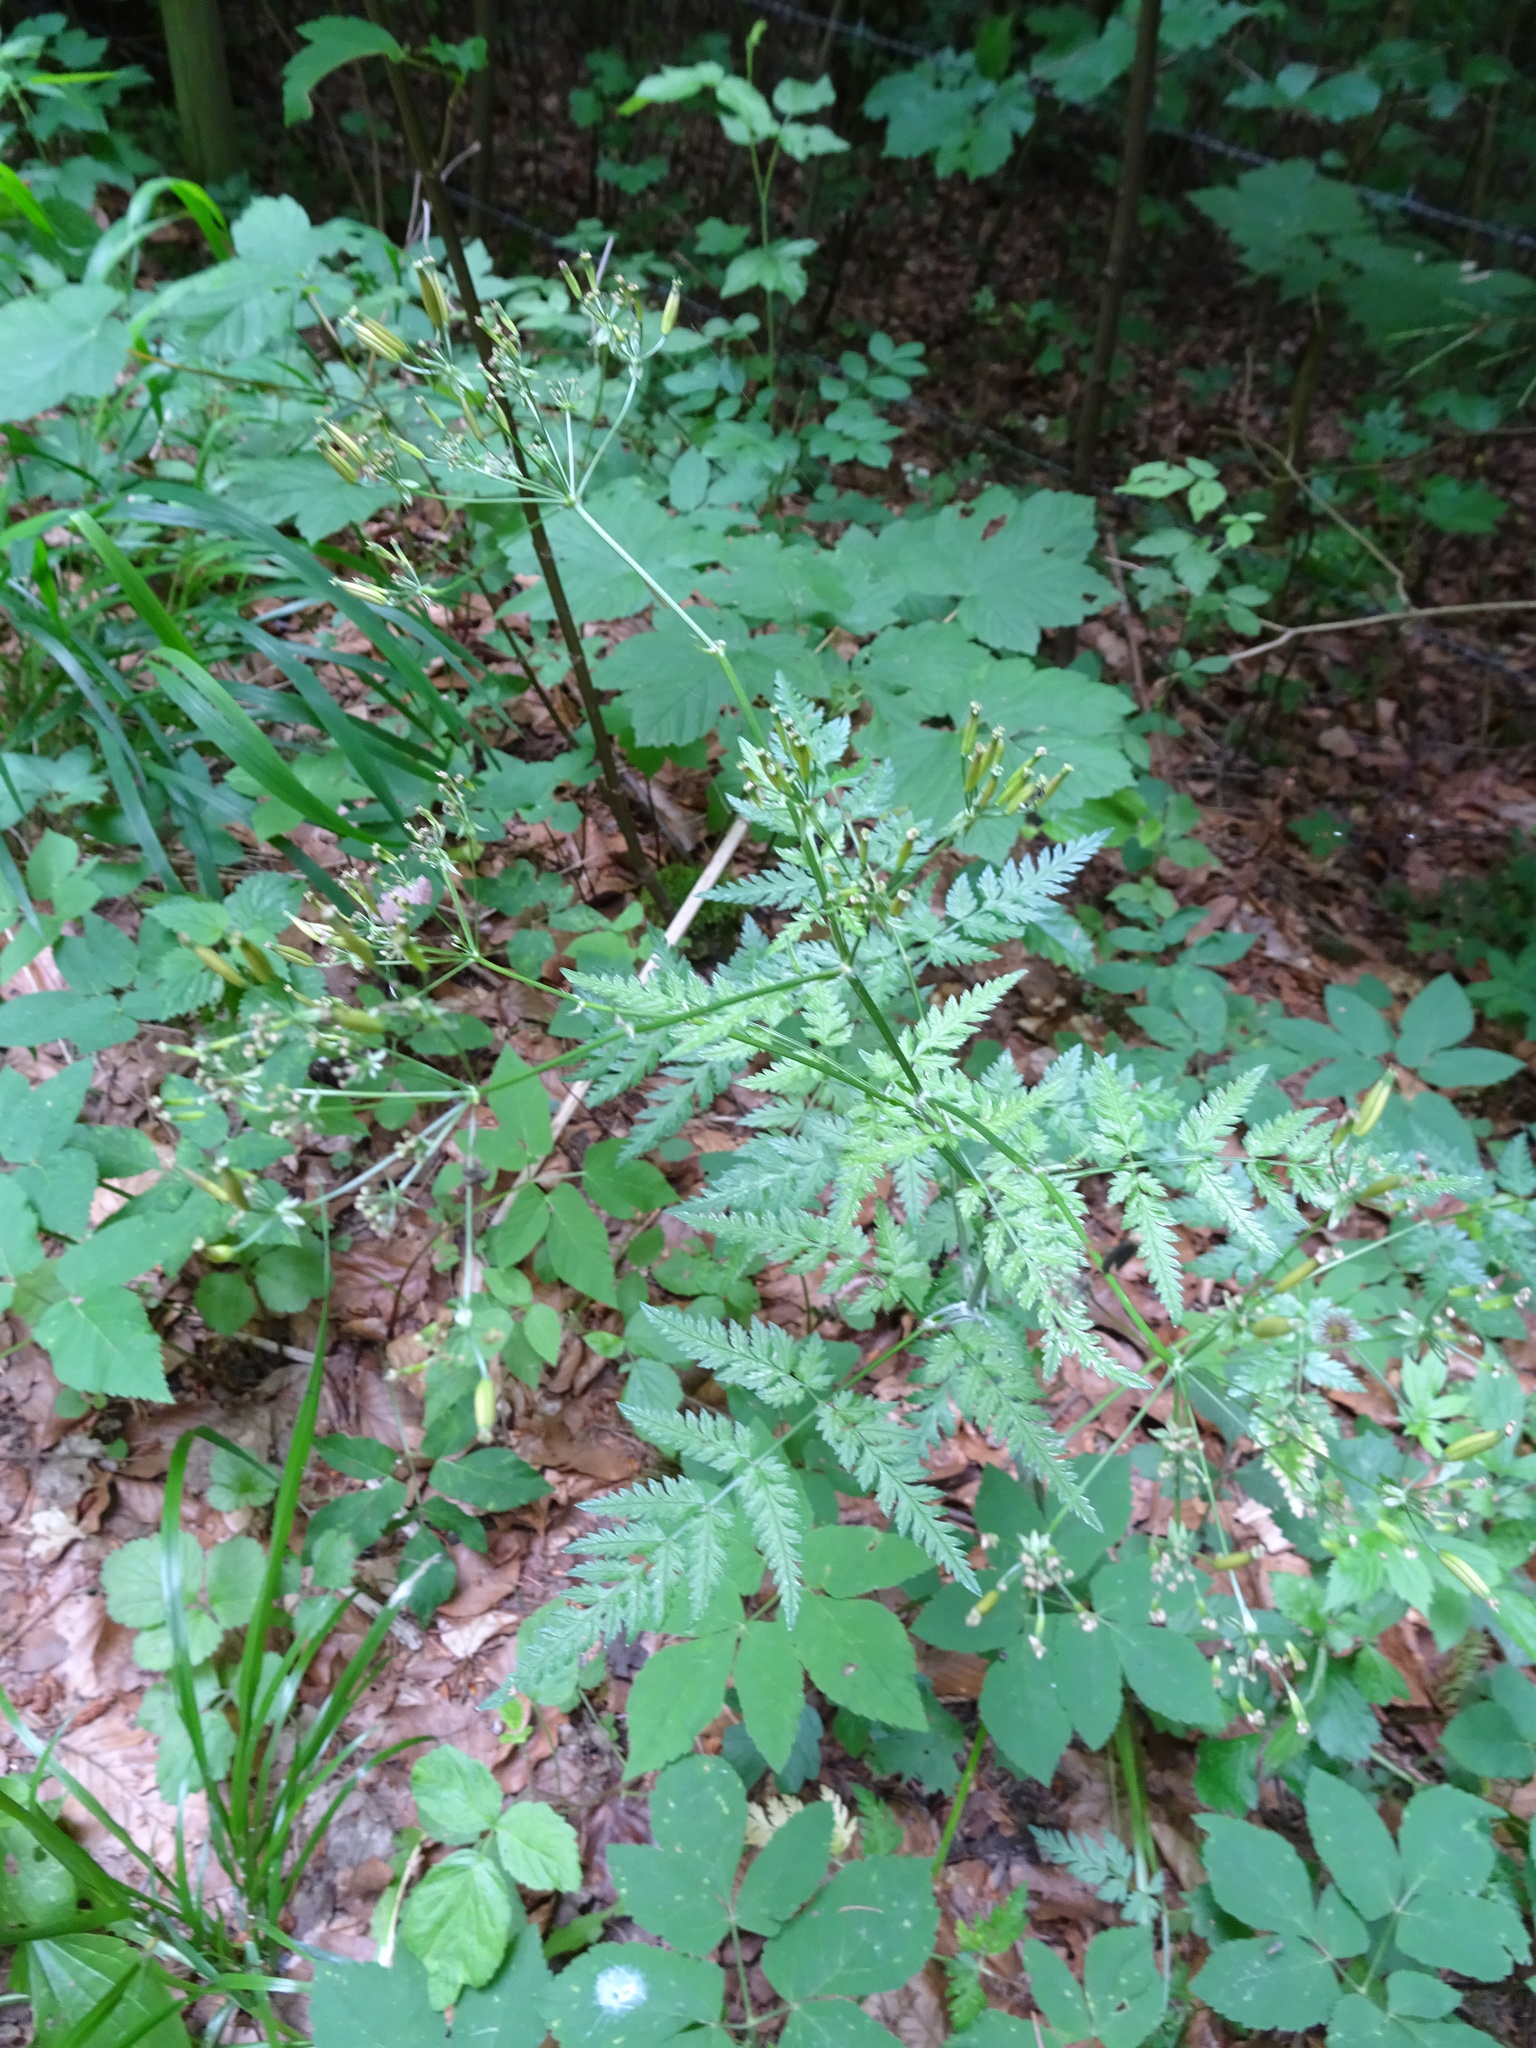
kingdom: Plantae
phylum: Tracheophyta
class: Magnoliopsida
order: Apiales
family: Apiaceae
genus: Anthriscus
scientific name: Anthriscus sylvestris
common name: Cow parsley
